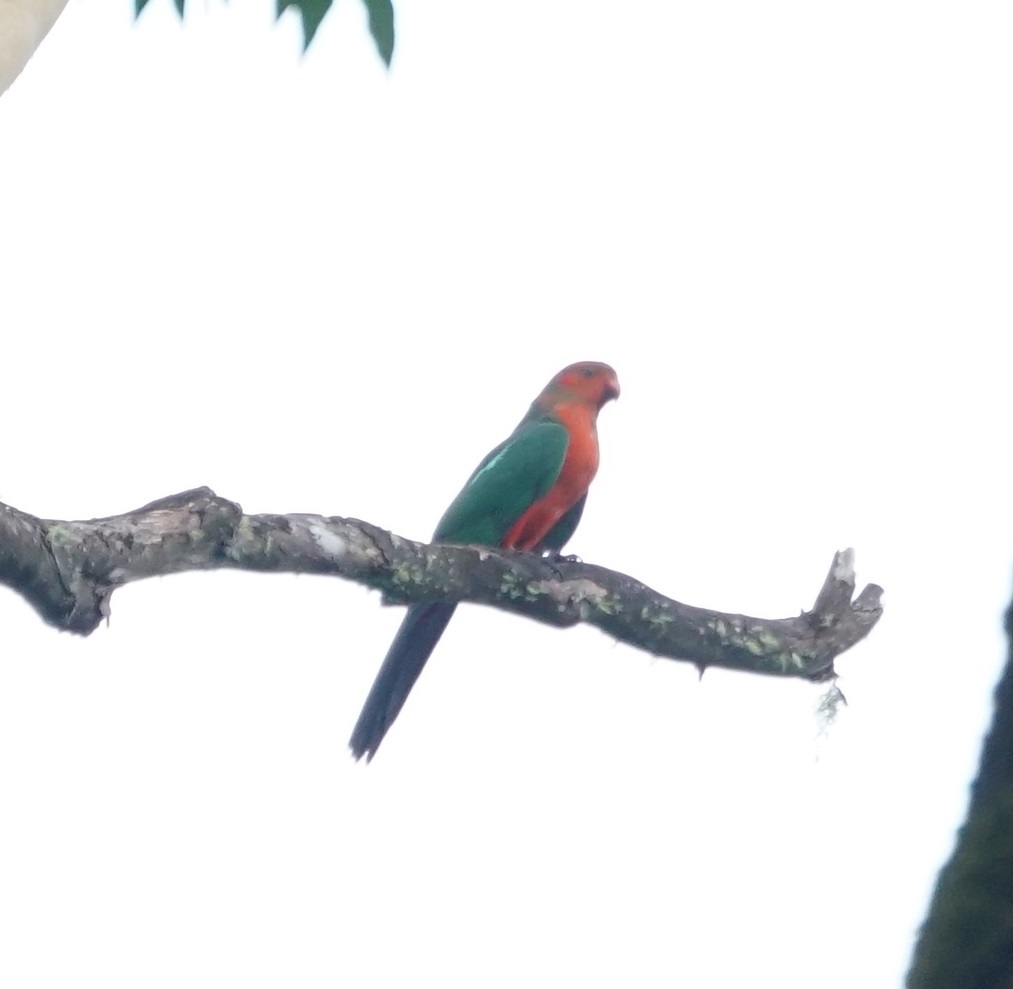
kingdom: Animalia
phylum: Chordata
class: Aves
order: Psittaciformes
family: Psittacidae
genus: Alisterus
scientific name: Alisterus scapularis
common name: Australian king parrot
